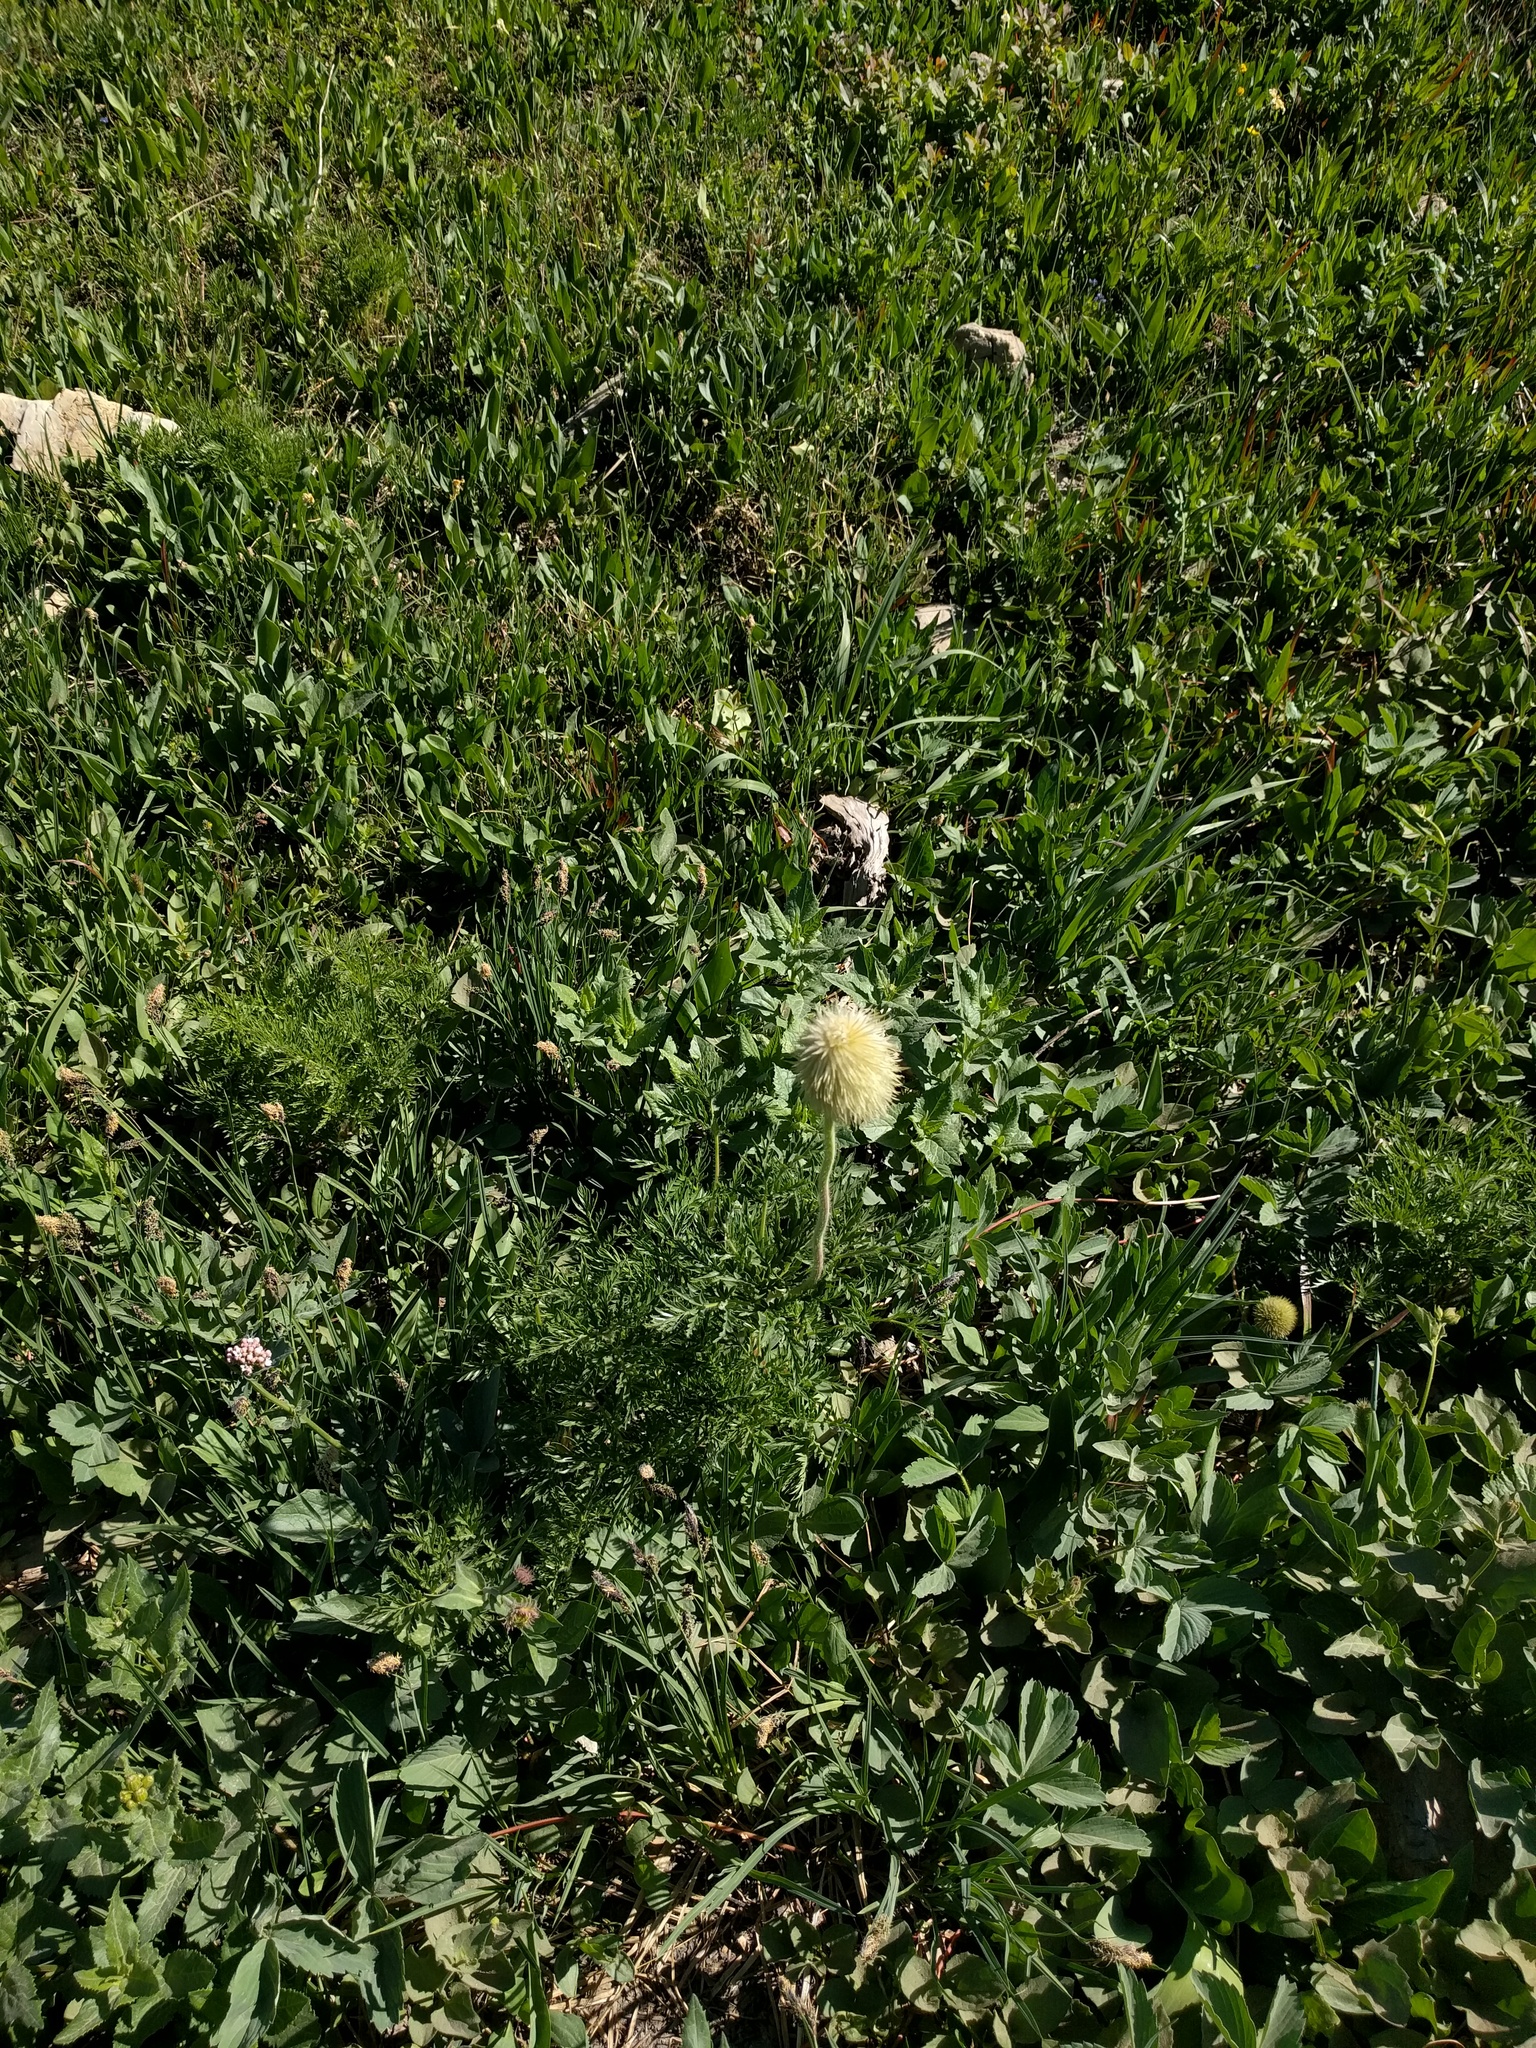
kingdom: Plantae
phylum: Tracheophyta
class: Magnoliopsida
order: Ranunculales
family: Ranunculaceae
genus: Pulsatilla
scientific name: Pulsatilla occidentalis
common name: Mountain pasqueflower
